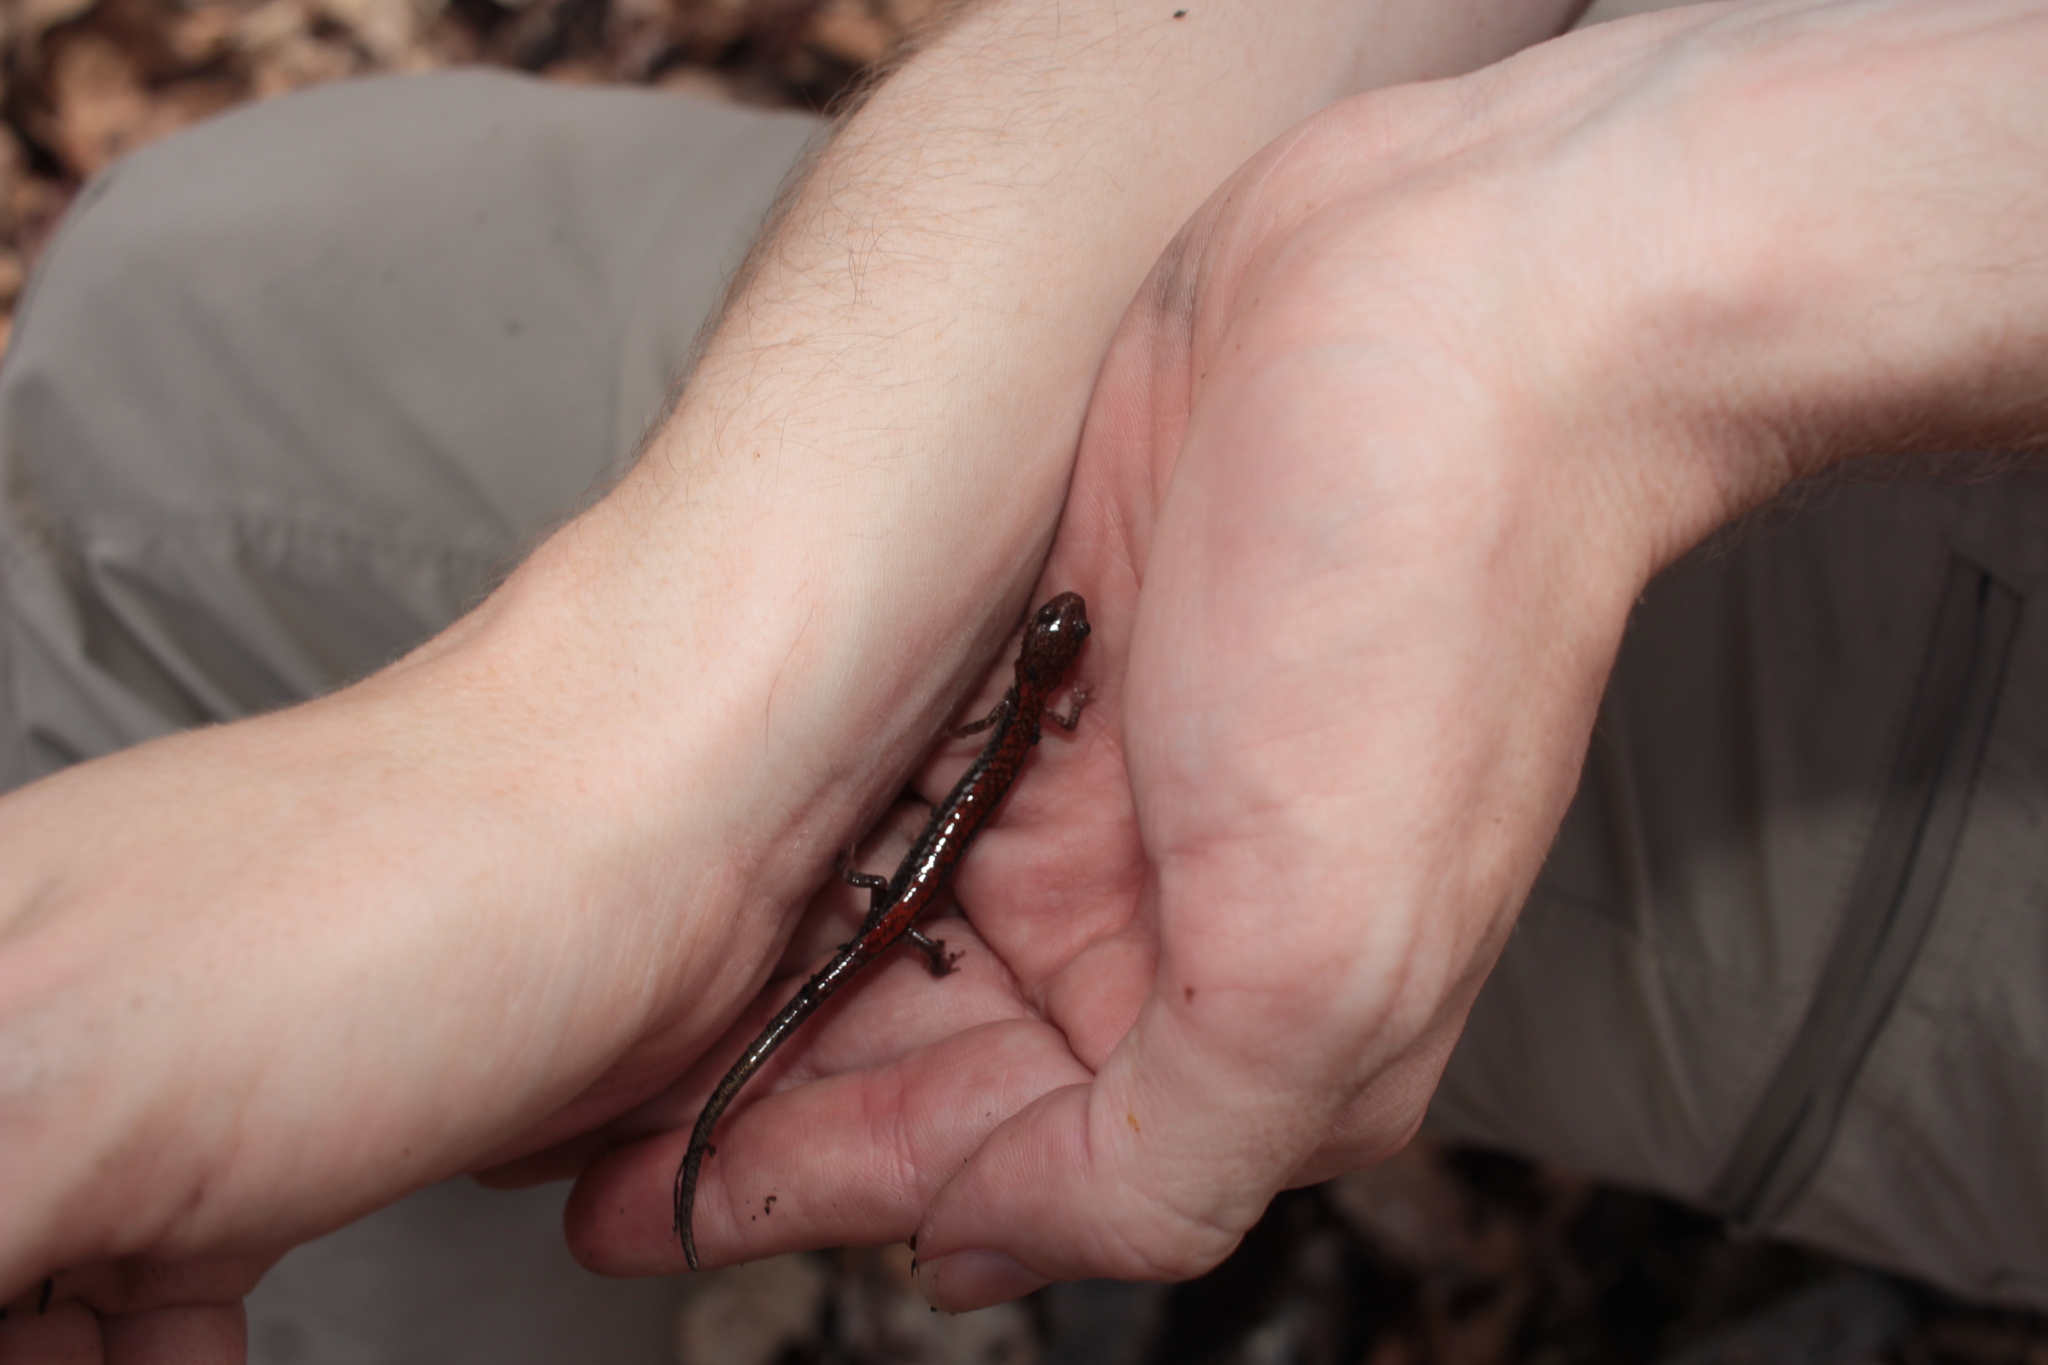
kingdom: Animalia
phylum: Chordata
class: Amphibia
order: Caudata
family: Plethodontidae
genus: Plethodon
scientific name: Plethodon sherando
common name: Big levels salamander
